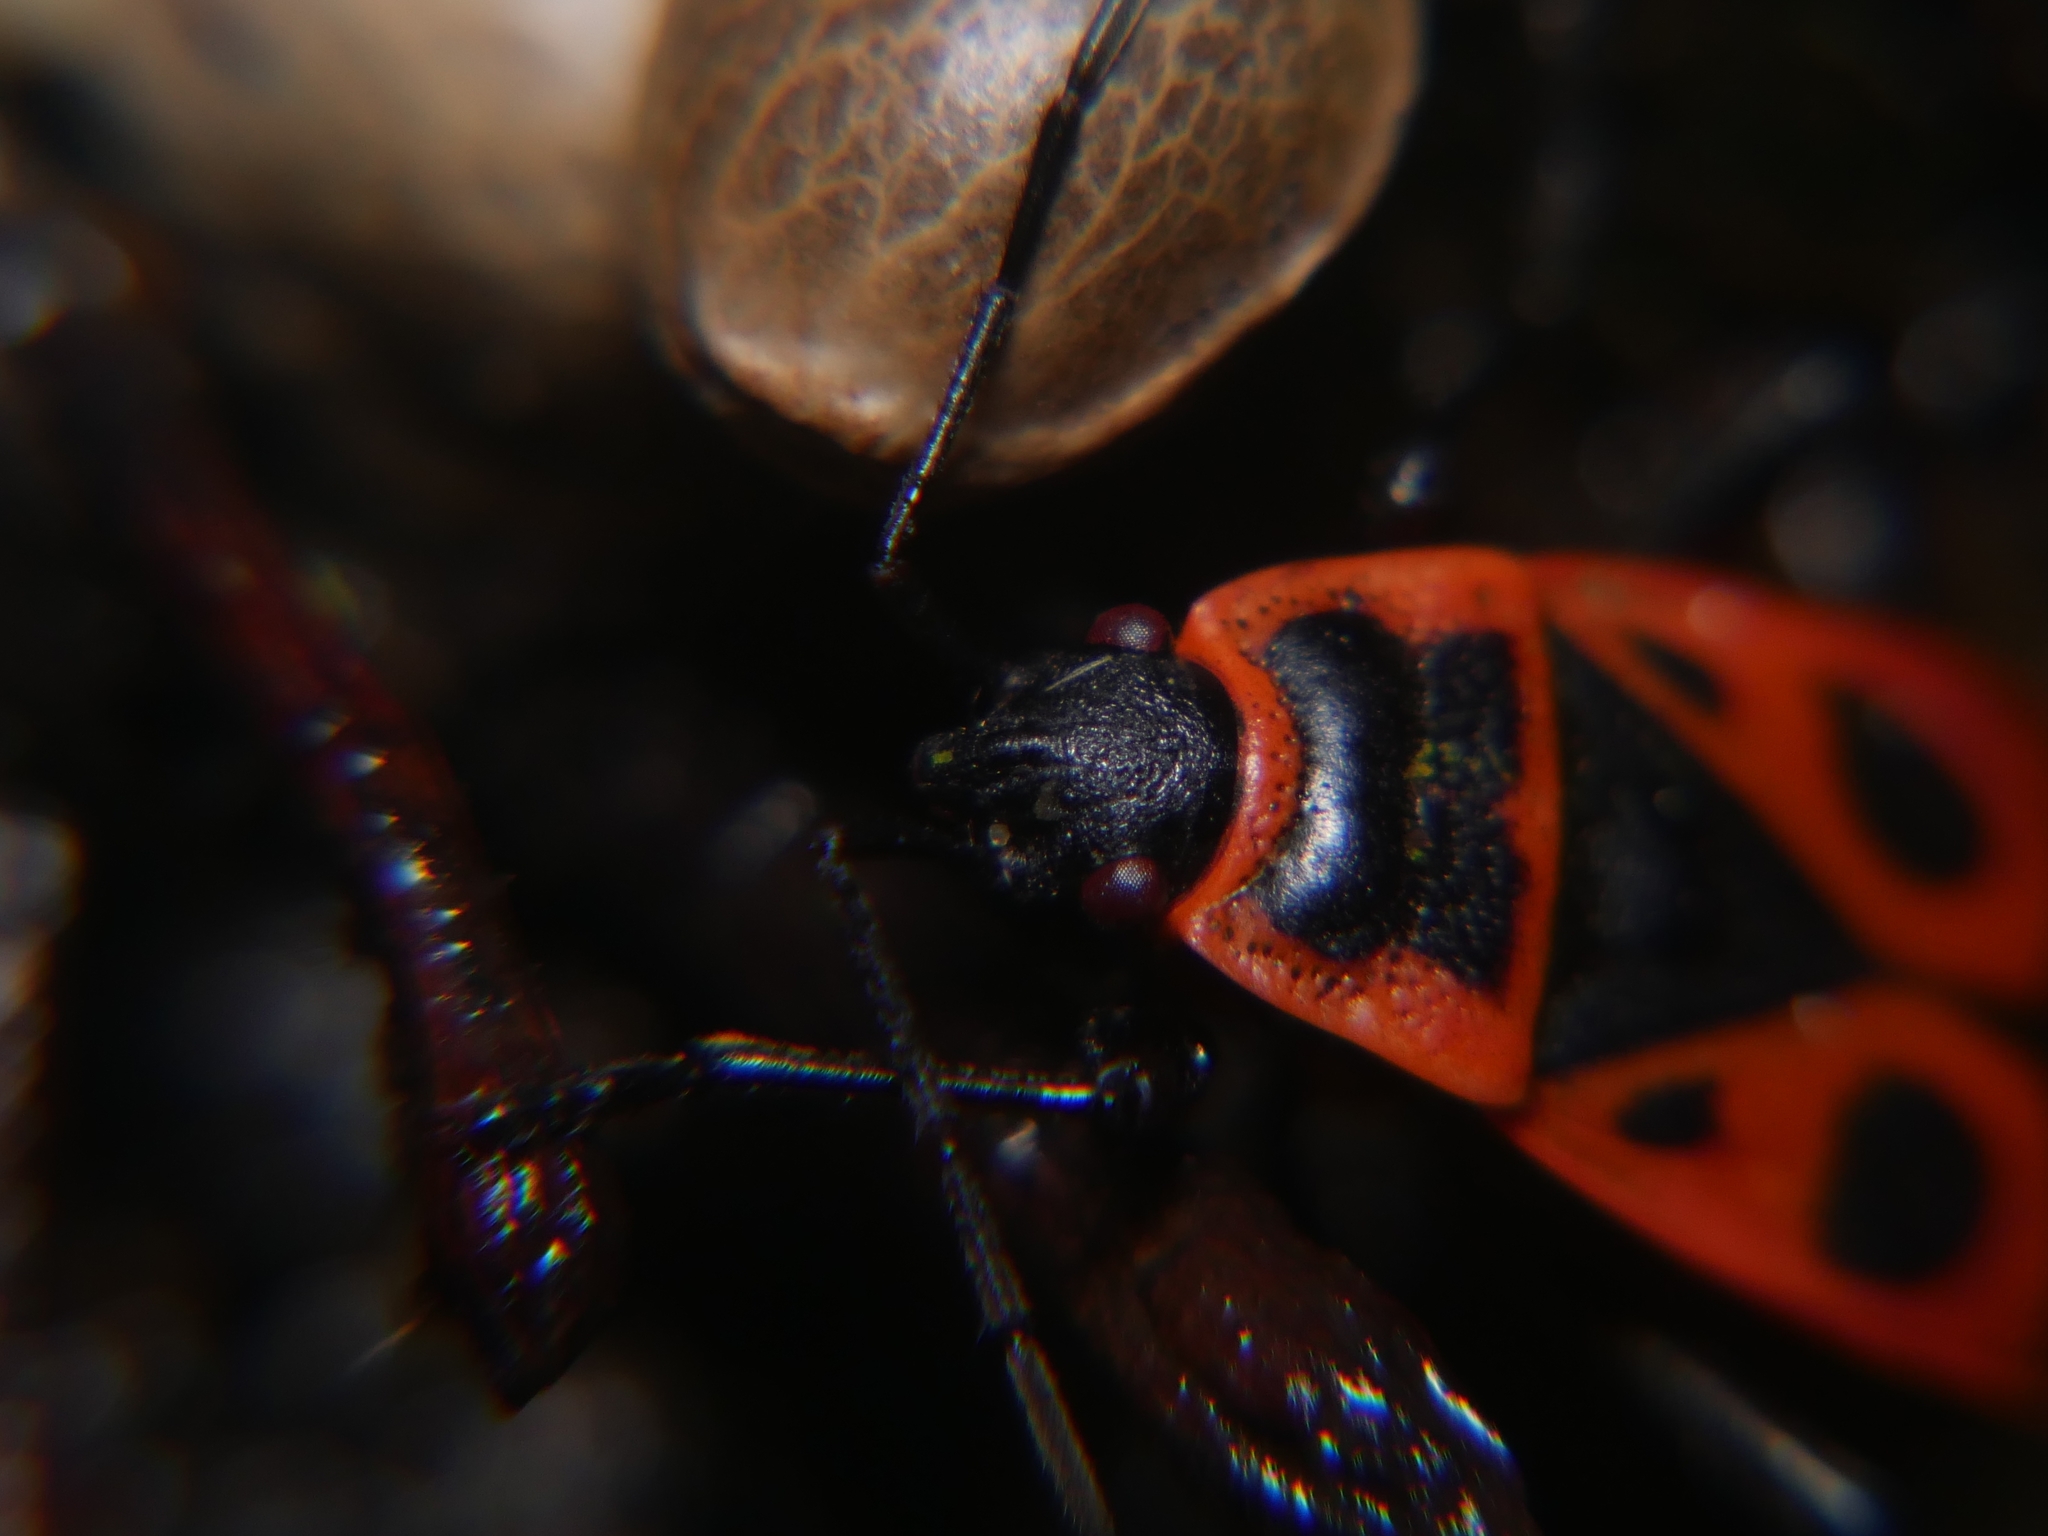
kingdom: Animalia
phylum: Arthropoda
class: Insecta
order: Hemiptera
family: Pyrrhocoridae
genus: Pyrrhocoris
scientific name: Pyrrhocoris apterus
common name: Firebug
